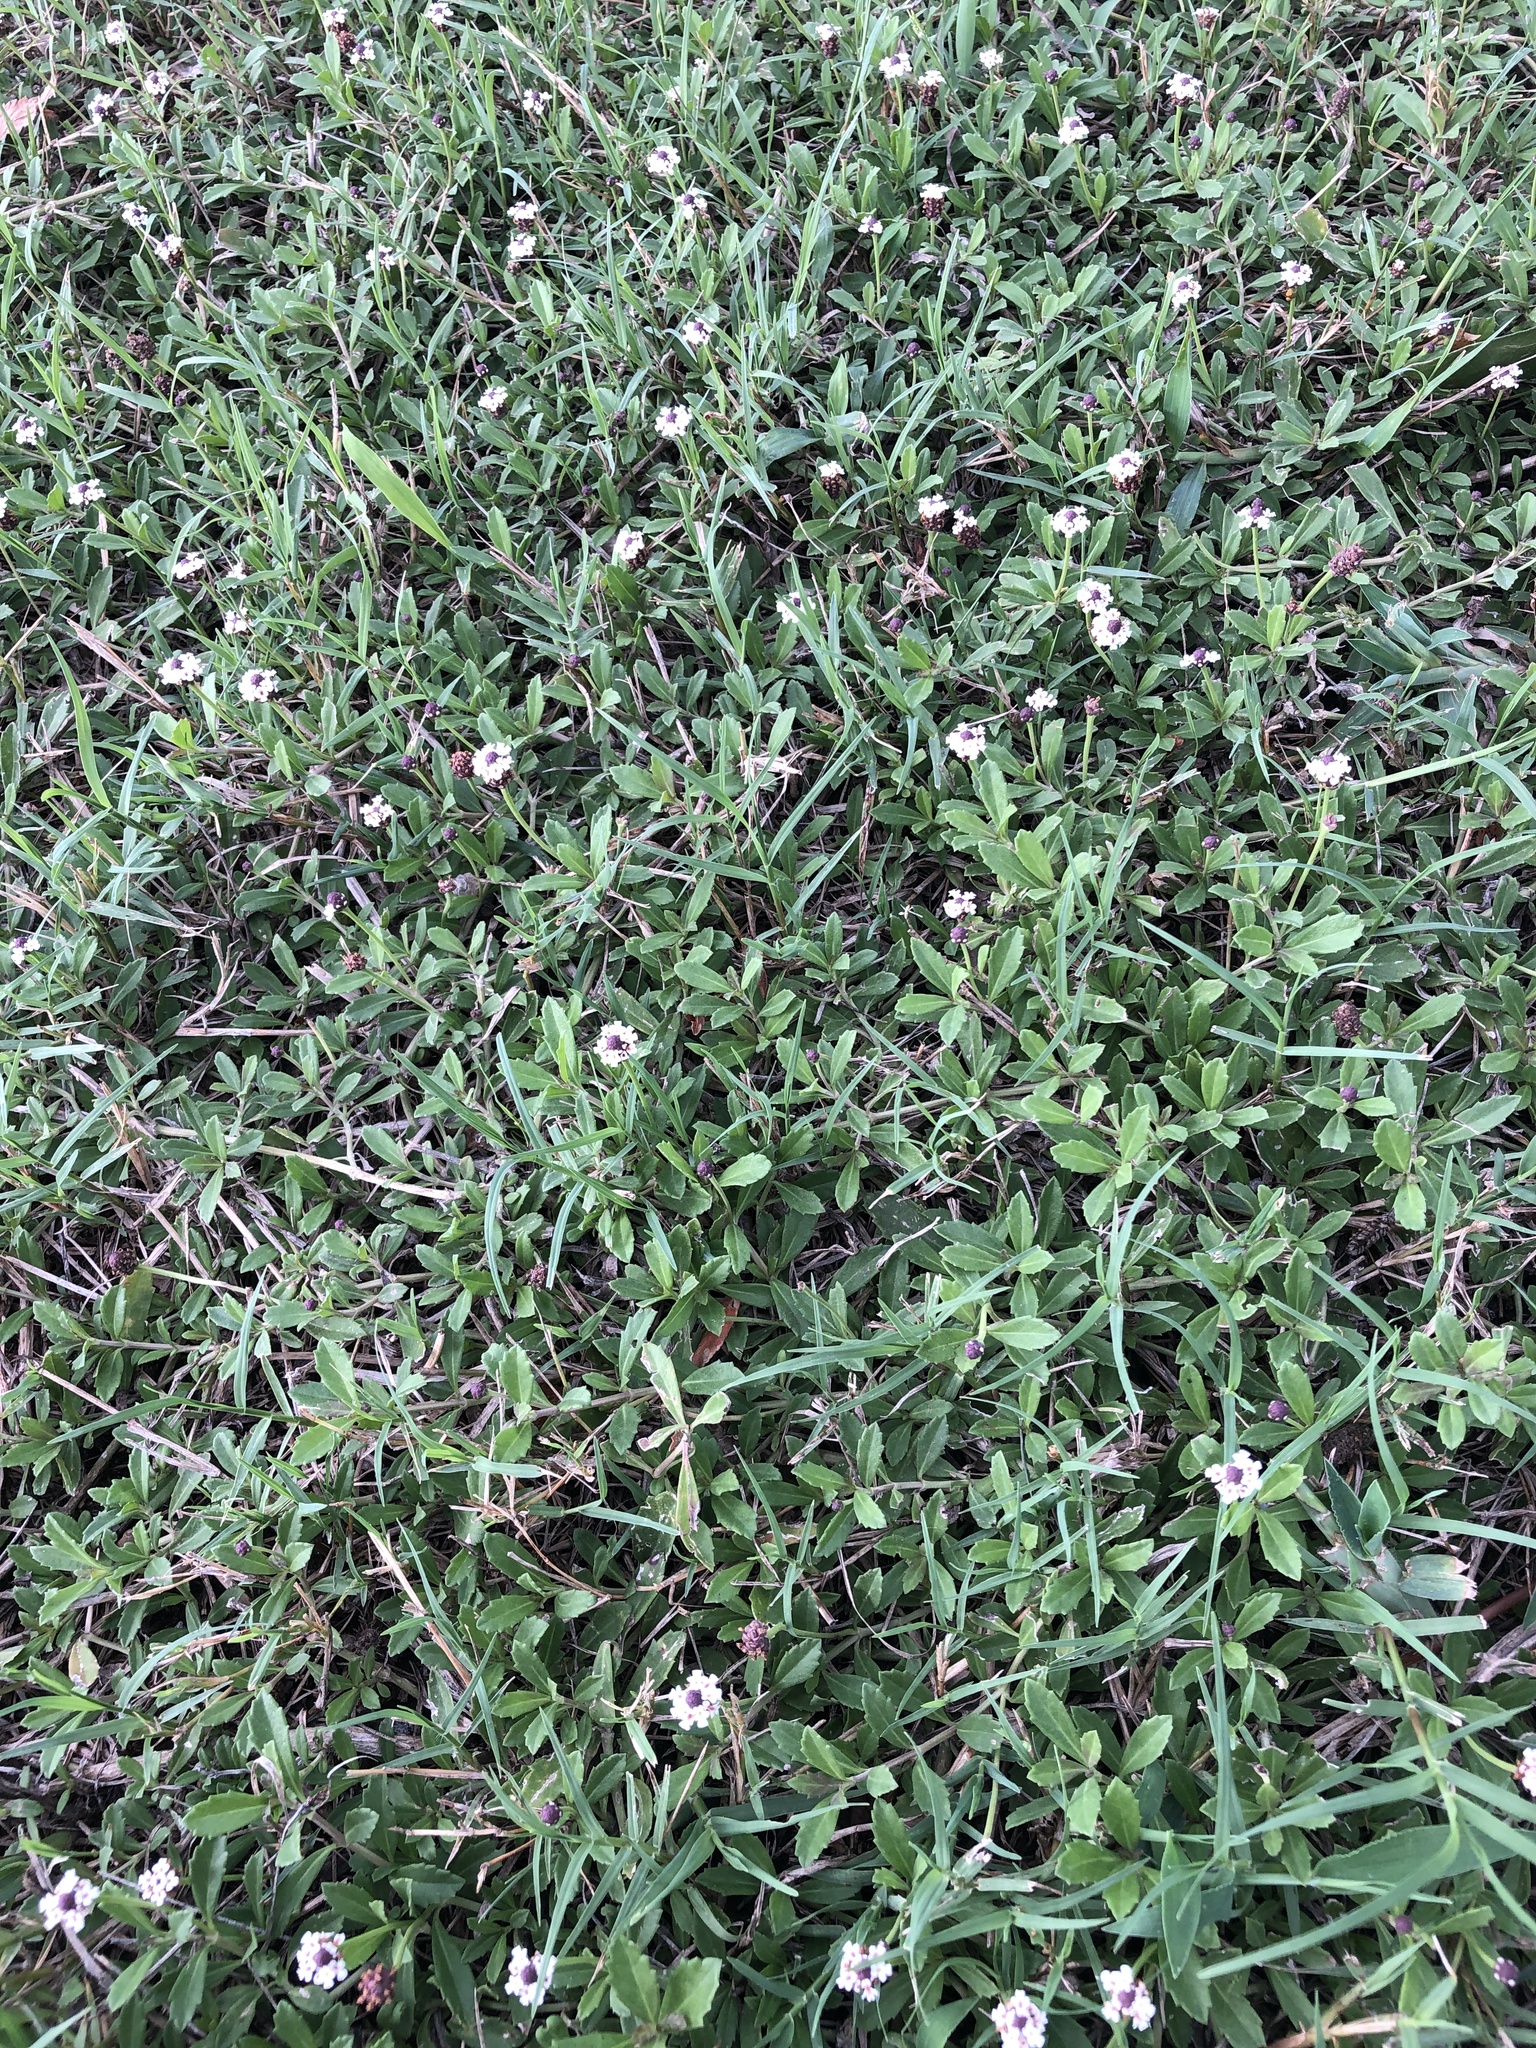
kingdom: Plantae
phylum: Tracheophyta
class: Magnoliopsida
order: Lamiales
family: Verbenaceae
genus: Phyla
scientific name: Phyla nodiflora
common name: Frogfruit
